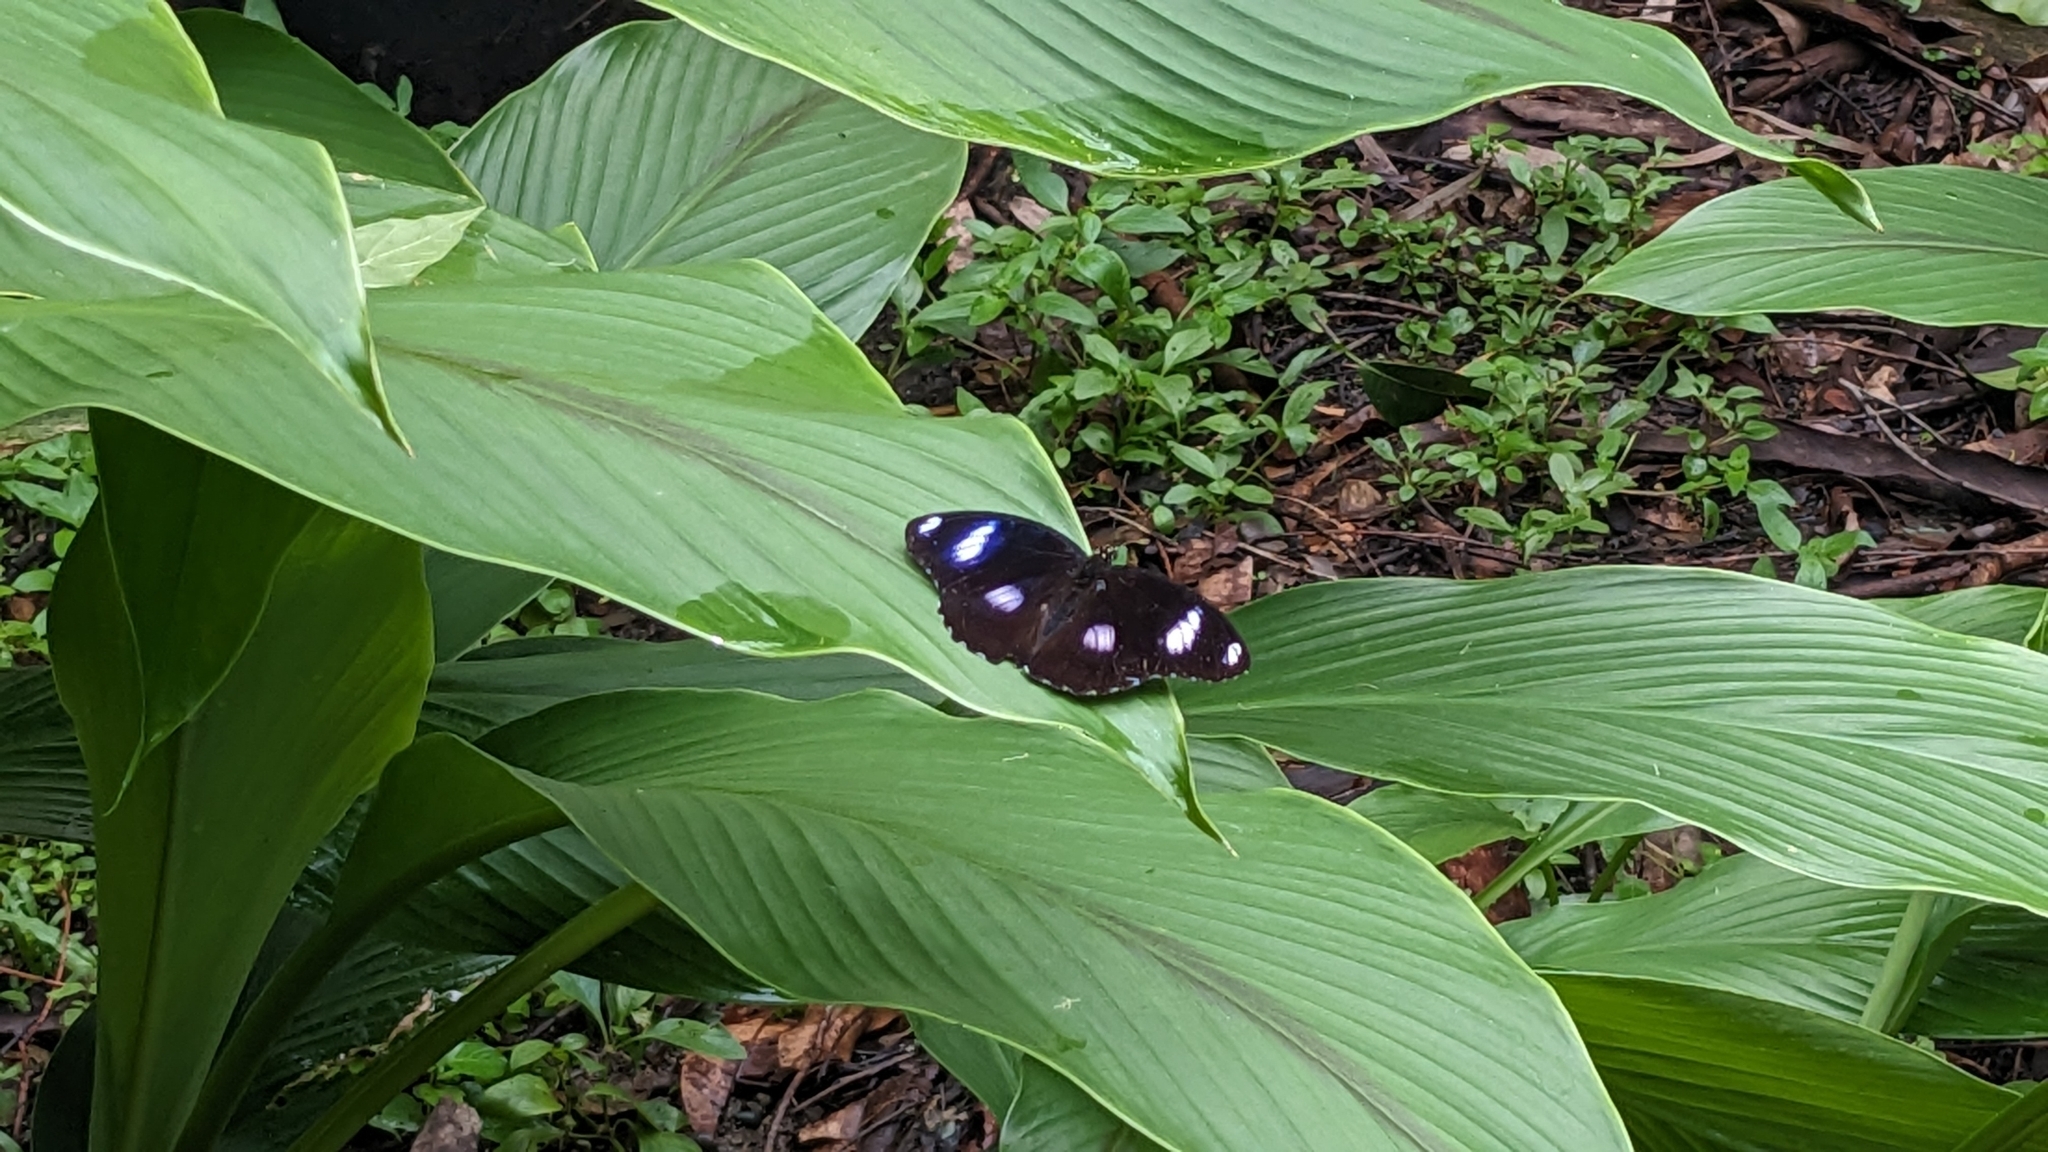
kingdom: Animalia
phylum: Arthropoda
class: Insecta
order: Lepidoptera
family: Nymphalidae
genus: Hypolimnas
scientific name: Hypolimnas bolina
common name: Great eggfly
